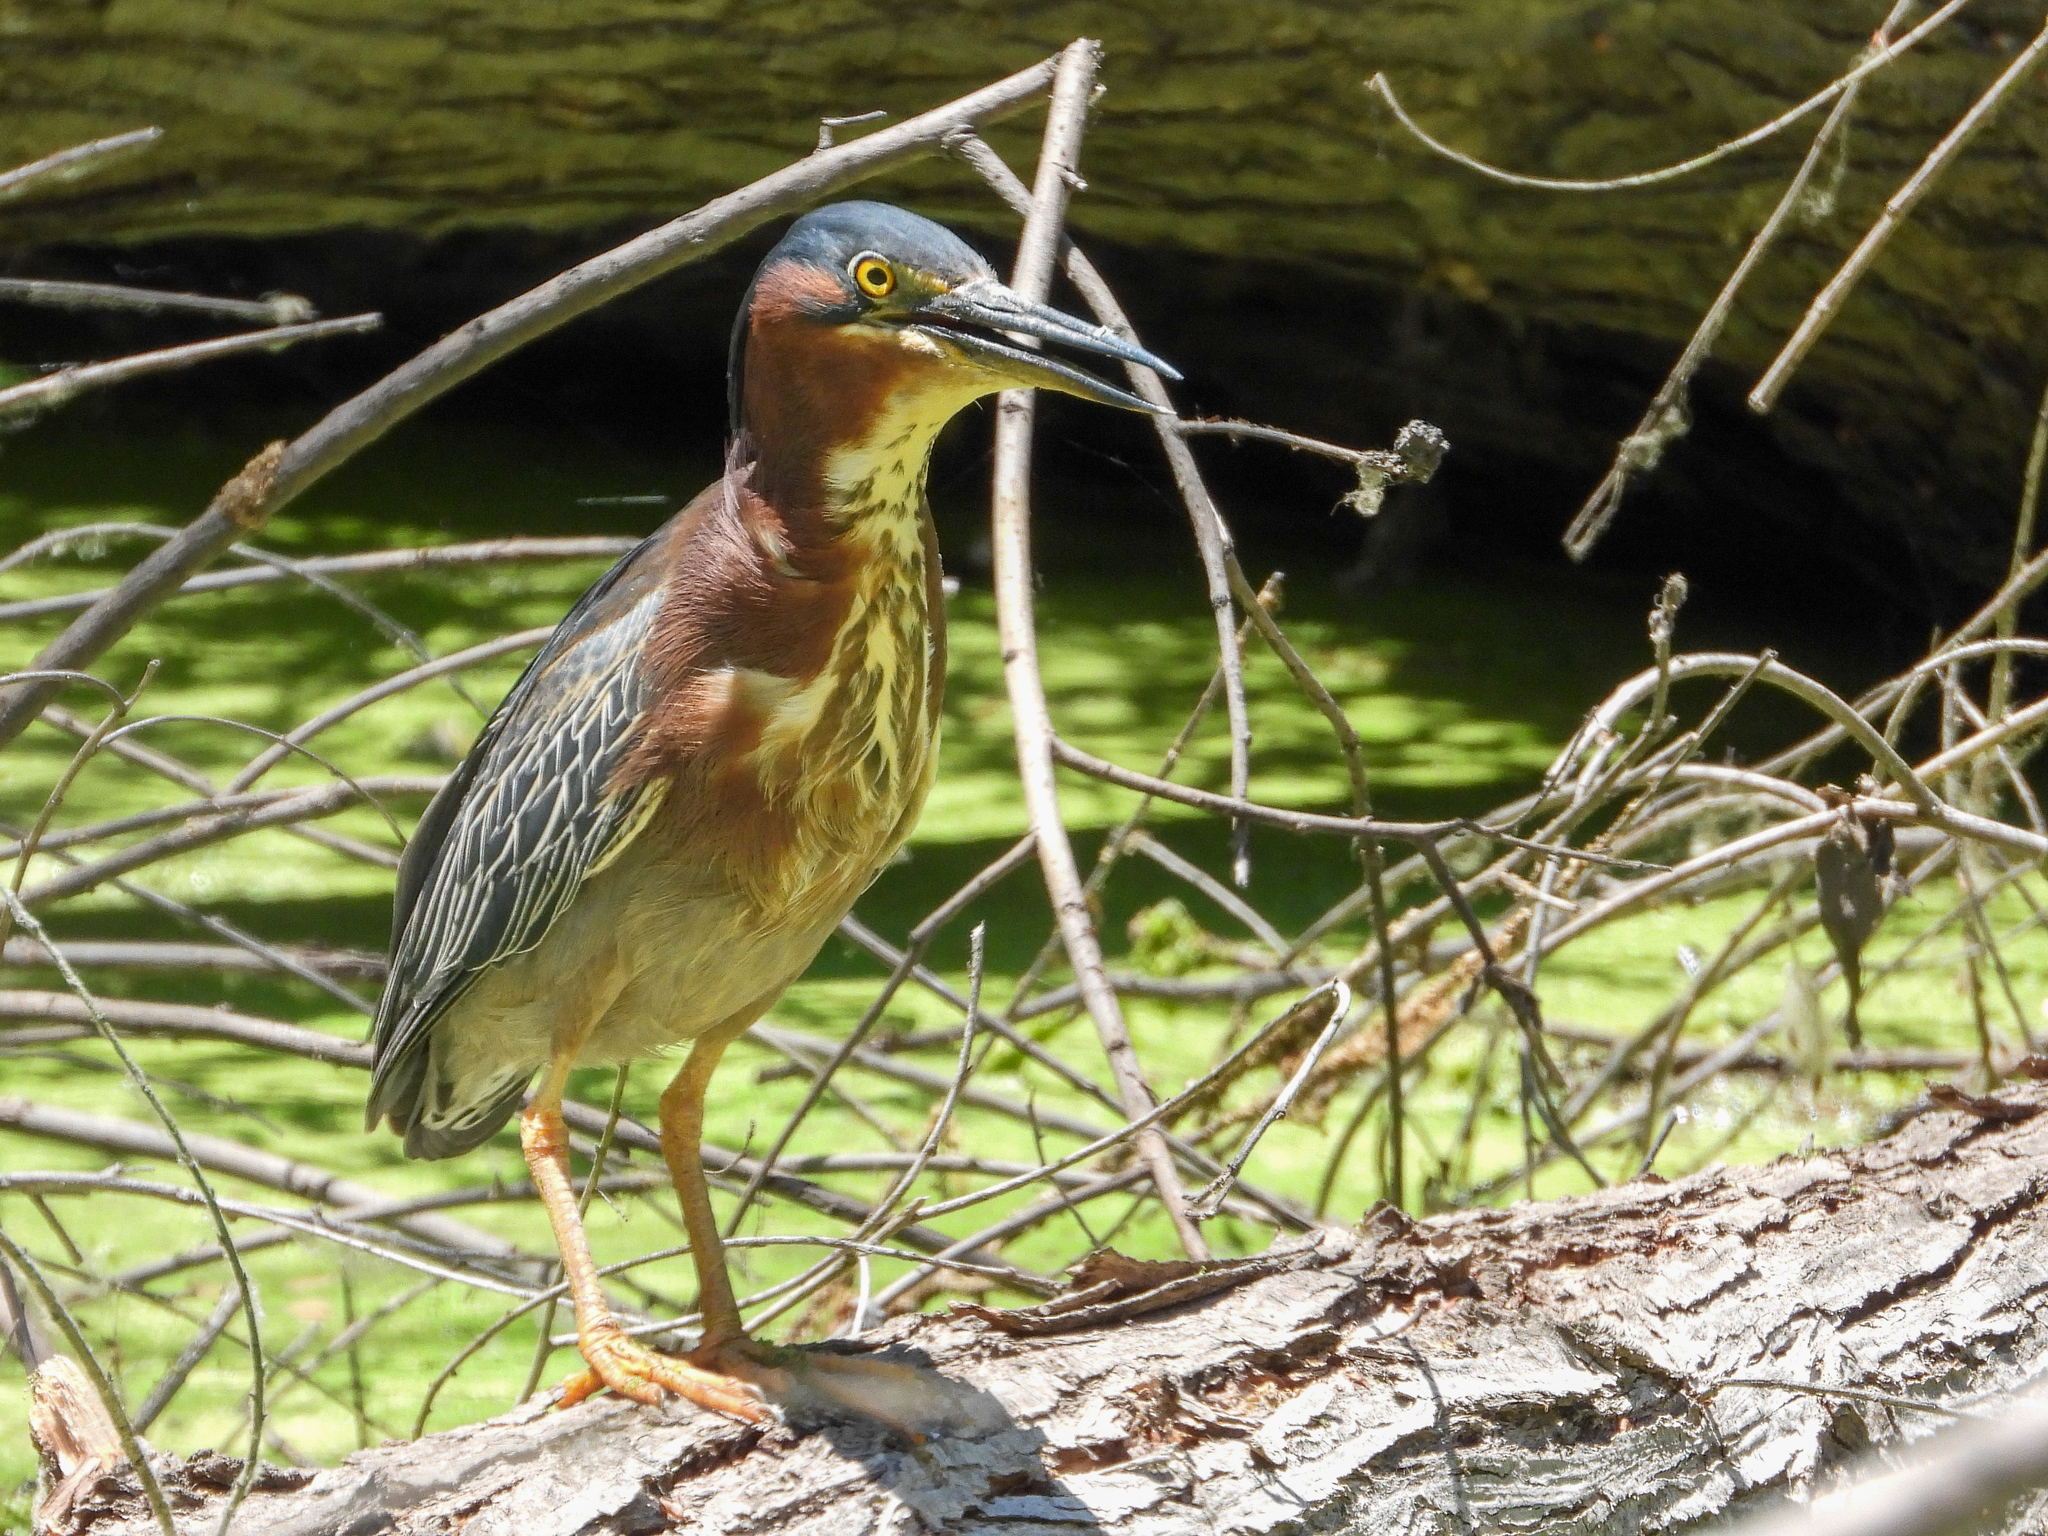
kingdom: Animalia
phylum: Chordata
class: Aves
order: Pelecaniformes
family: Ardeidae
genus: Butorides
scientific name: Butorides virescens
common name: Green heron
